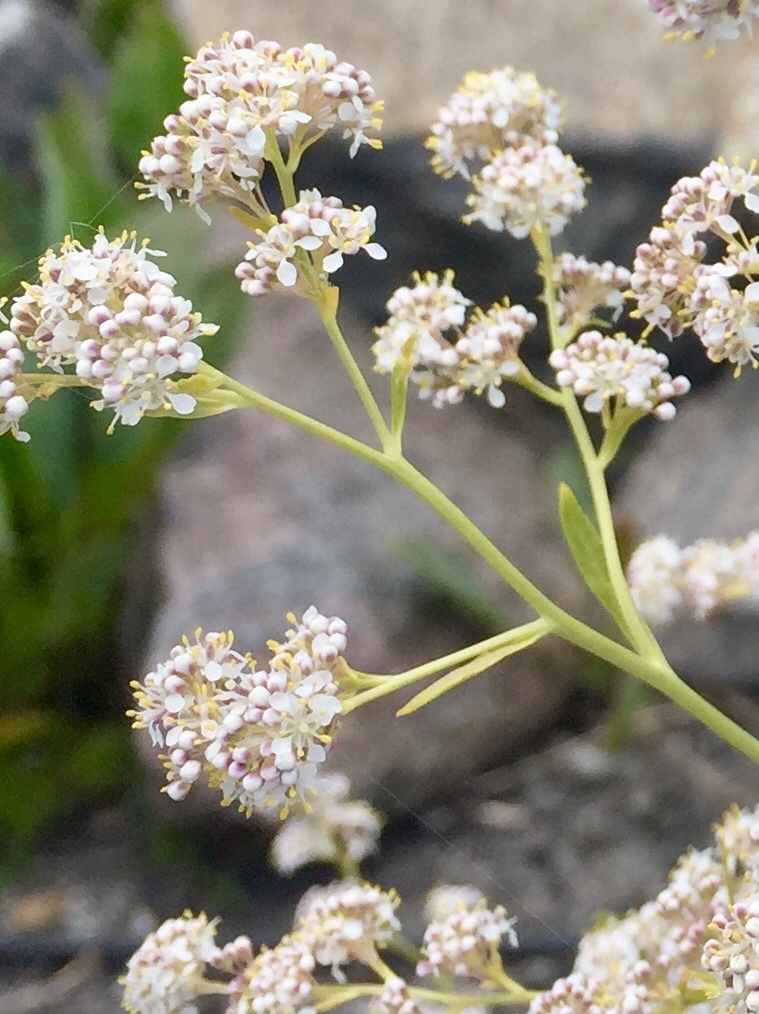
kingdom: Plantae
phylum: Tracheophyta
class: Magnoliopsida
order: Brassicales
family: Brassicaceae
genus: Lepidium
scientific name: Lepidium latifolium
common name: Dittander
